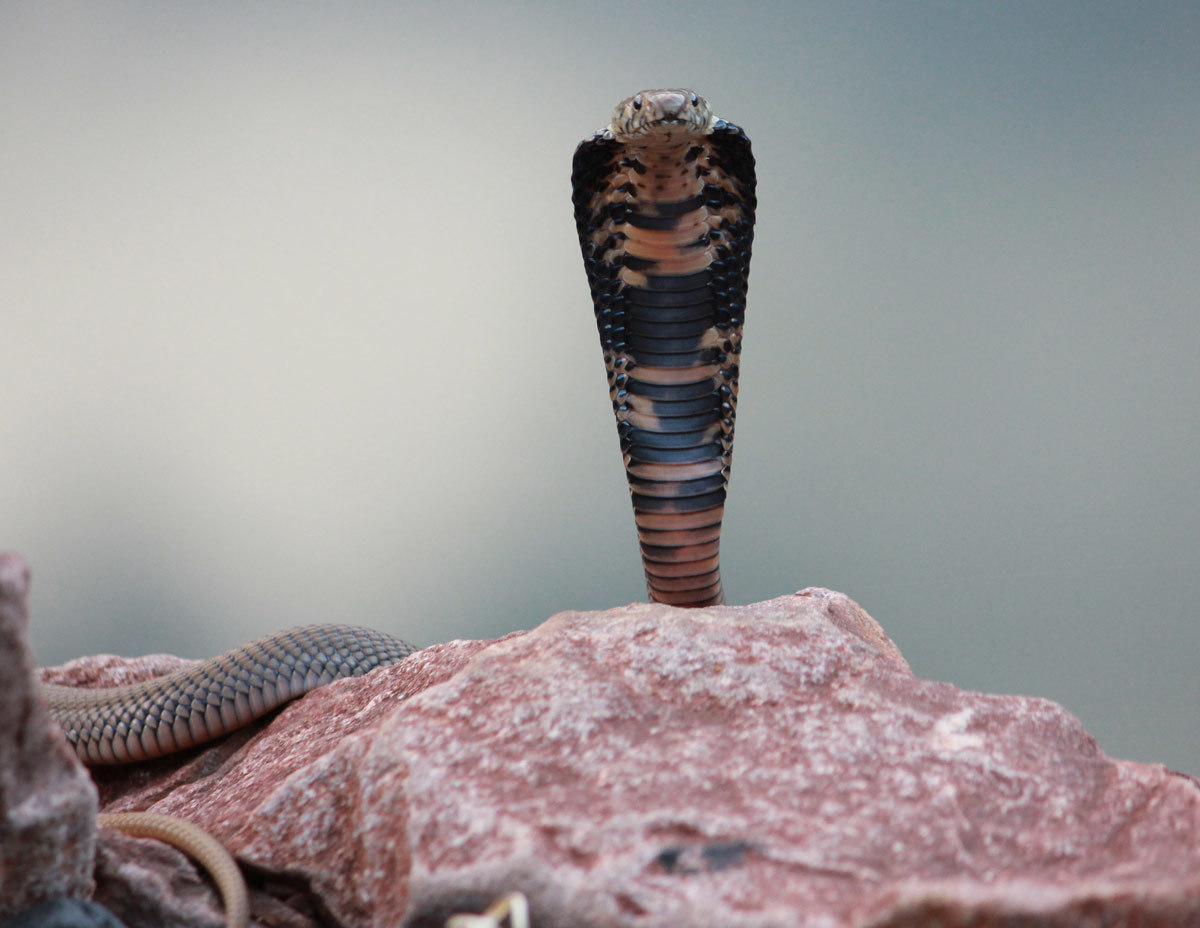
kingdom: Animalia
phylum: Chordata
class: Squamata
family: Elapidae
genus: Naja
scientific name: Naja mossambica
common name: Mozambique spitting cobra
